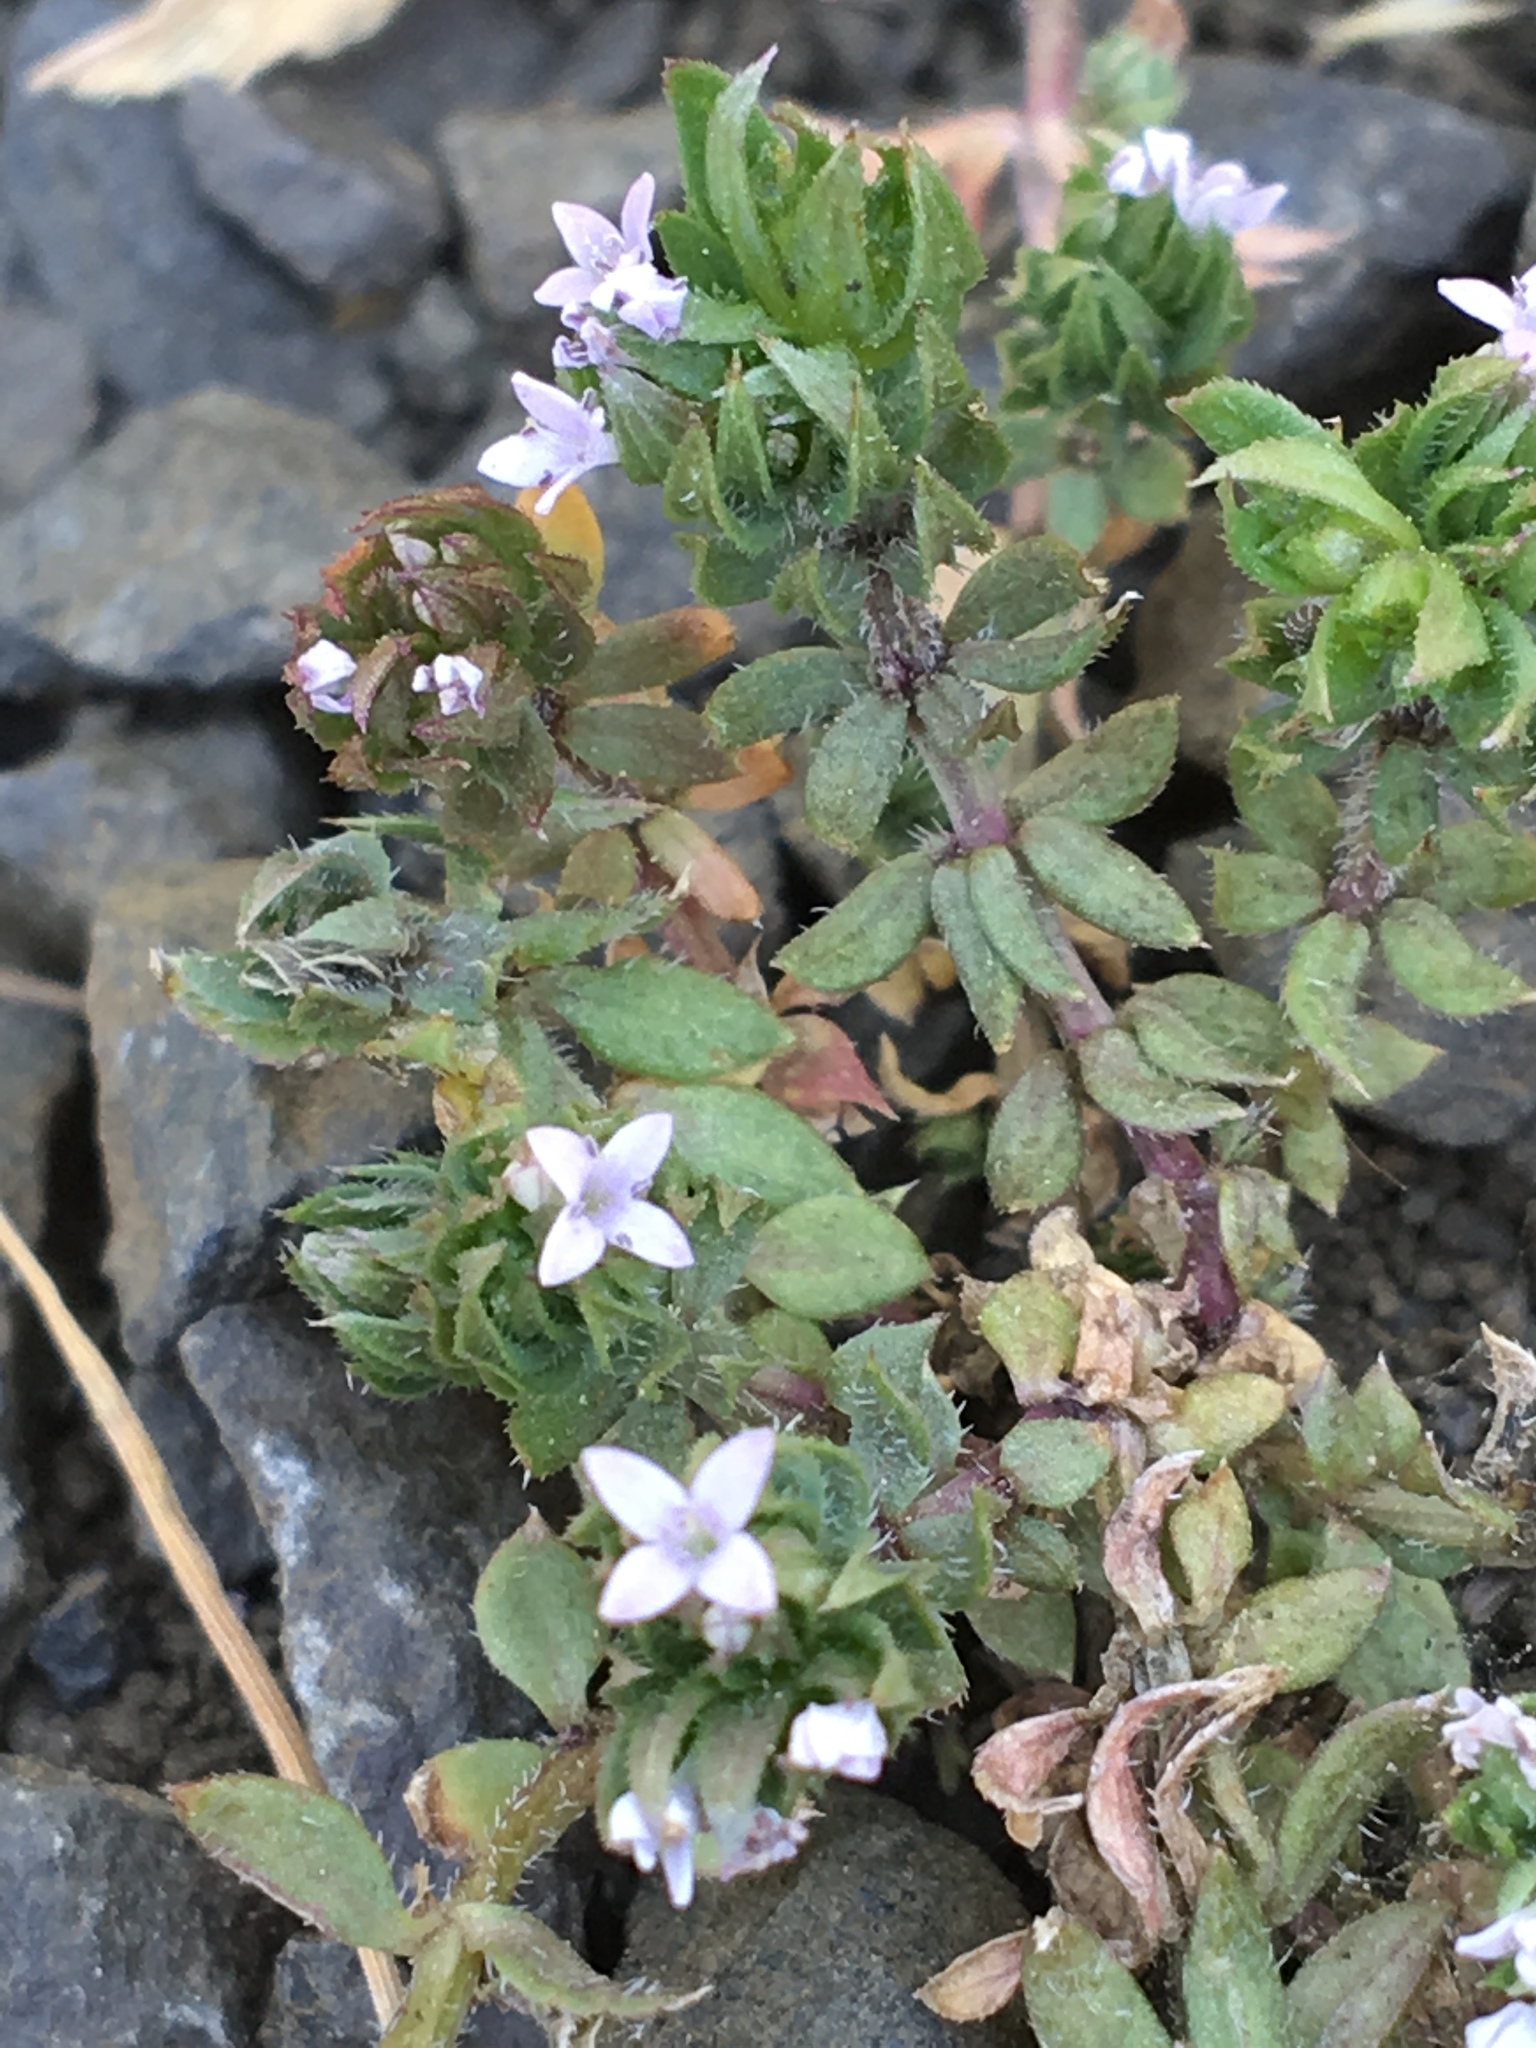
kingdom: Plantae
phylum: Tracheophyta
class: Magnoliopsida
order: Gentianales
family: Rubiaceae
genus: Sherardia
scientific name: Sherardia arvensis
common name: Field madder
